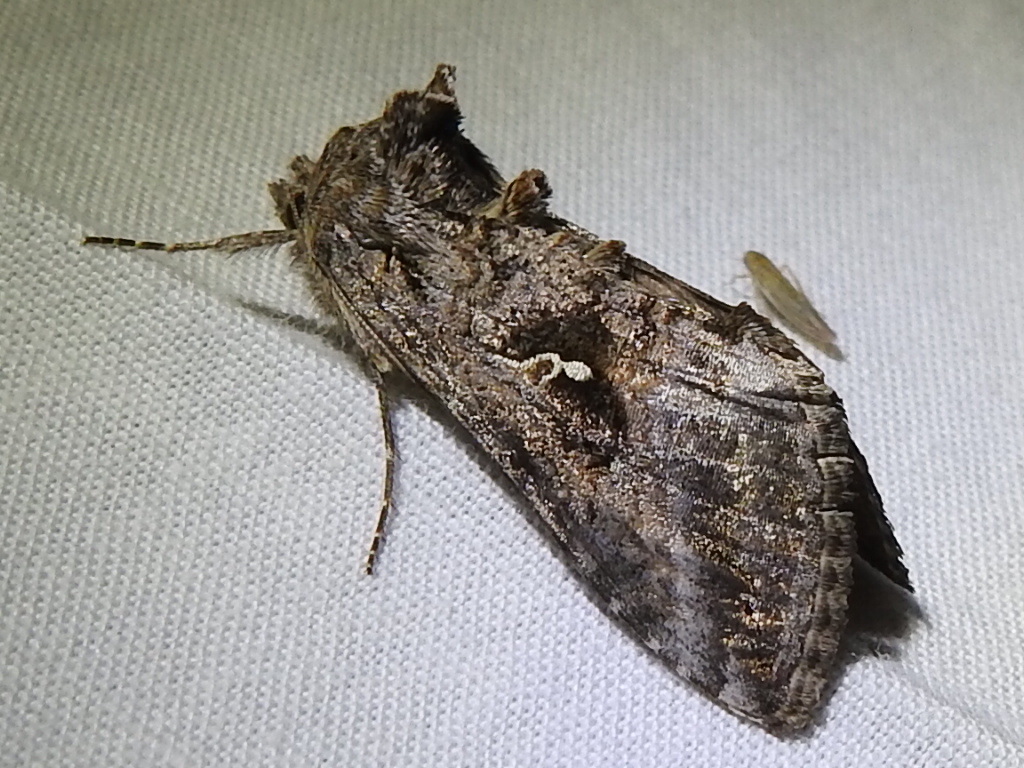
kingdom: Animalia
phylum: Arthropoda
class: Insecta
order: Lepidoptera
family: Noctuidae
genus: Rachiplusia
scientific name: Rachiplusia ou
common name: Gray looper moth
